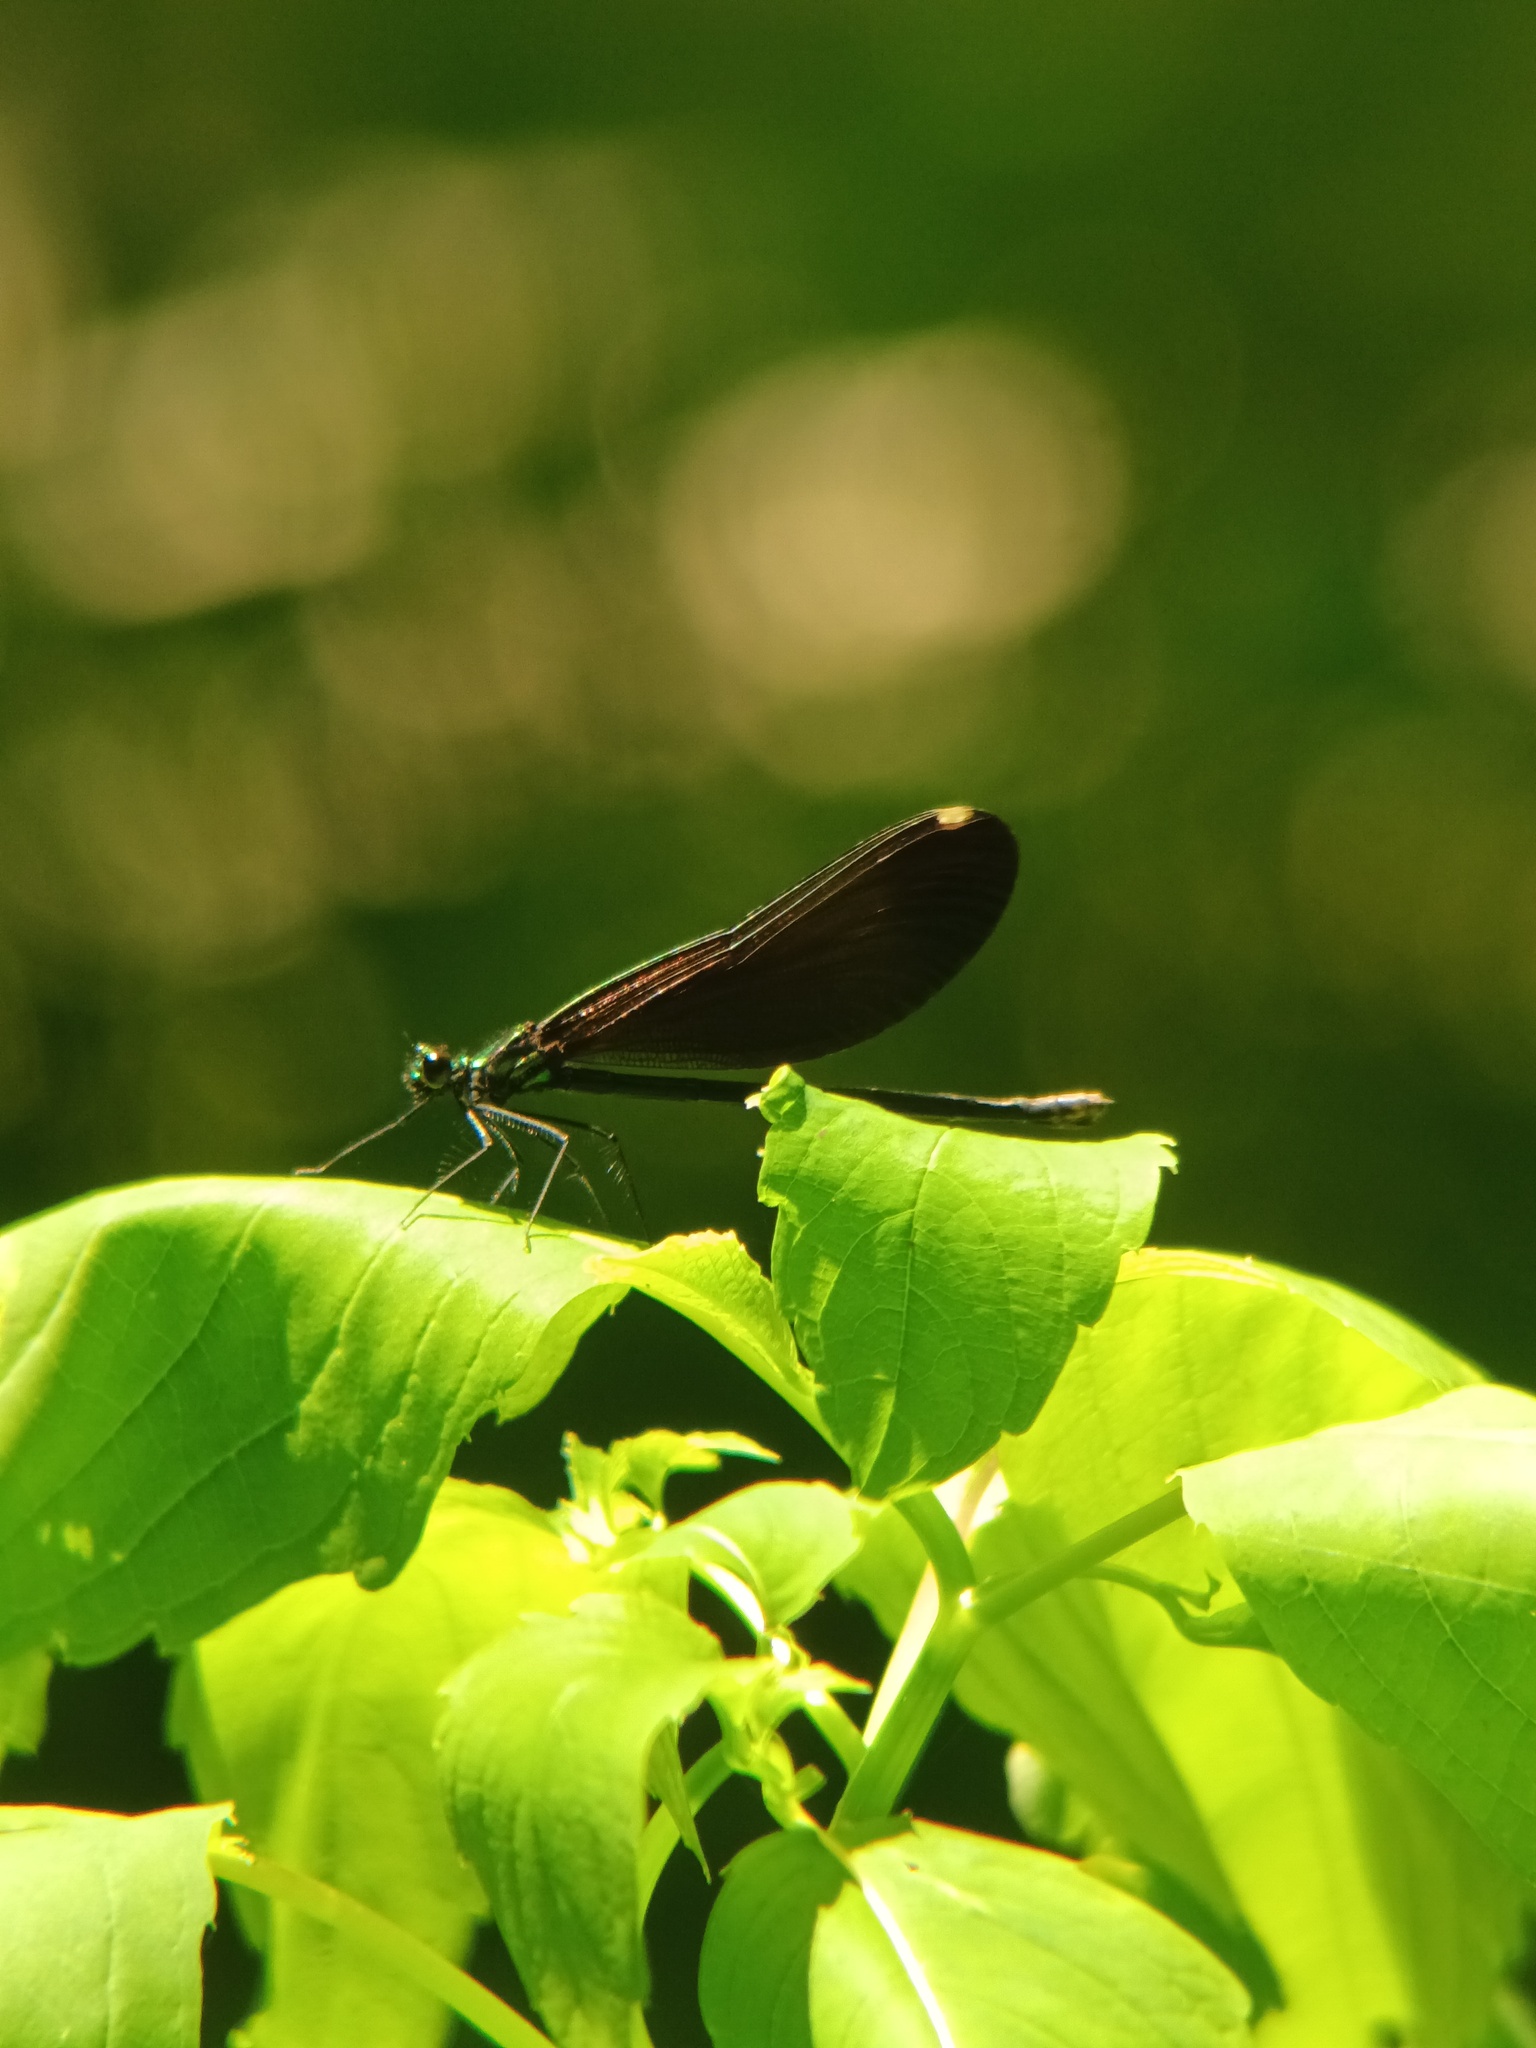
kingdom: Animalia
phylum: Arthropoda
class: Insecta
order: Odonata
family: Calopterygidae
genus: Calopteryx
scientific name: Calopteryx maculata
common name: Ebony jewelwing
